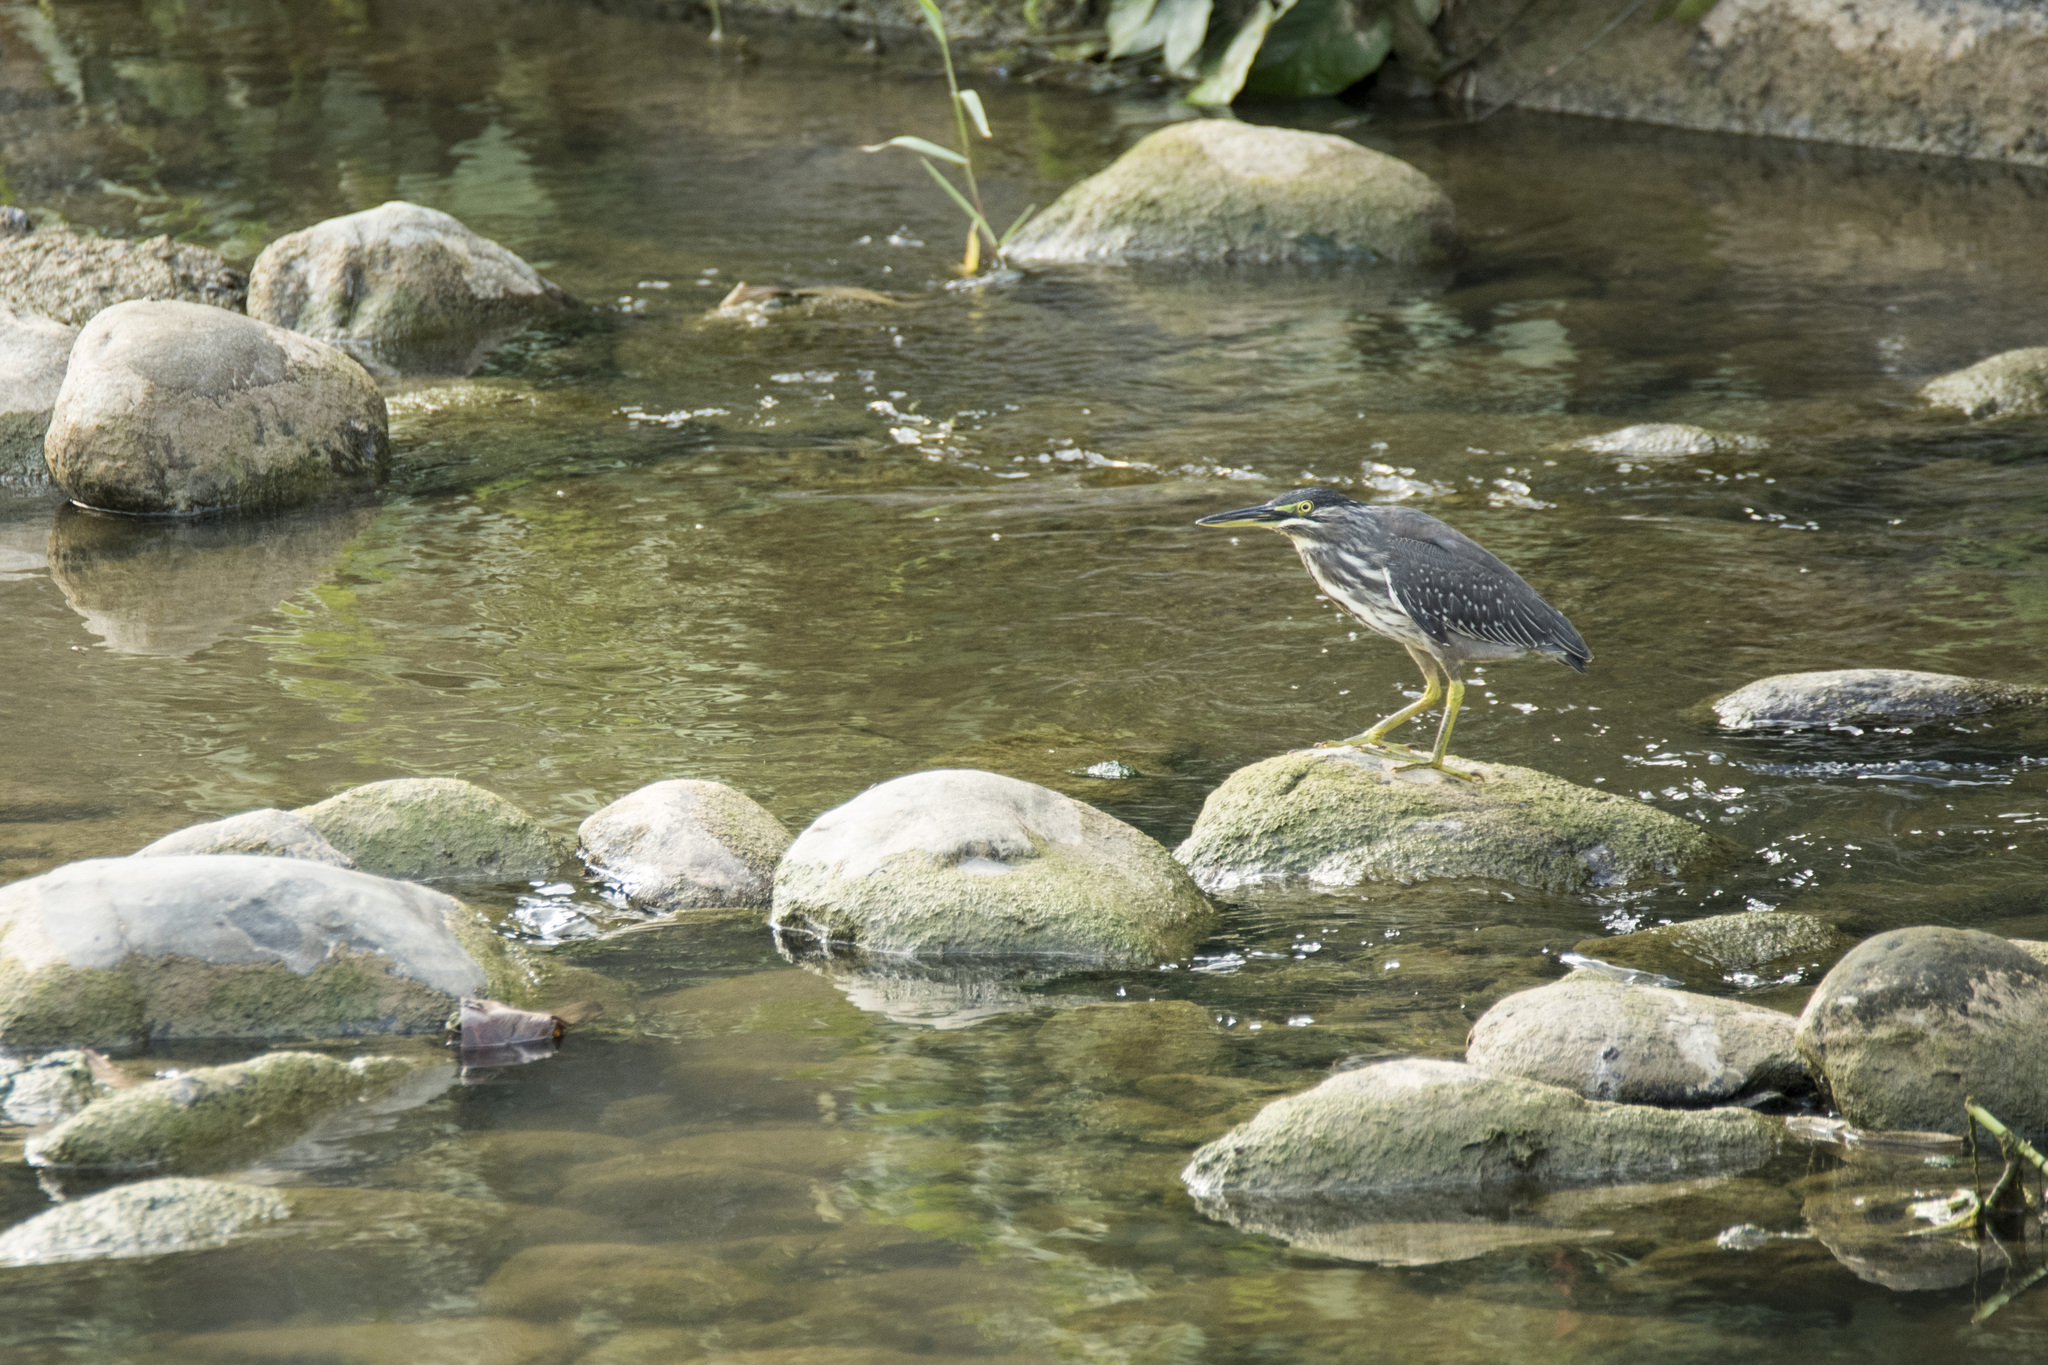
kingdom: Animalia
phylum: Chordata
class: Aves
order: Pelecaniformes
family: Ardeidae
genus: Butorides
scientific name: Butorides striata
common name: Striated heron
